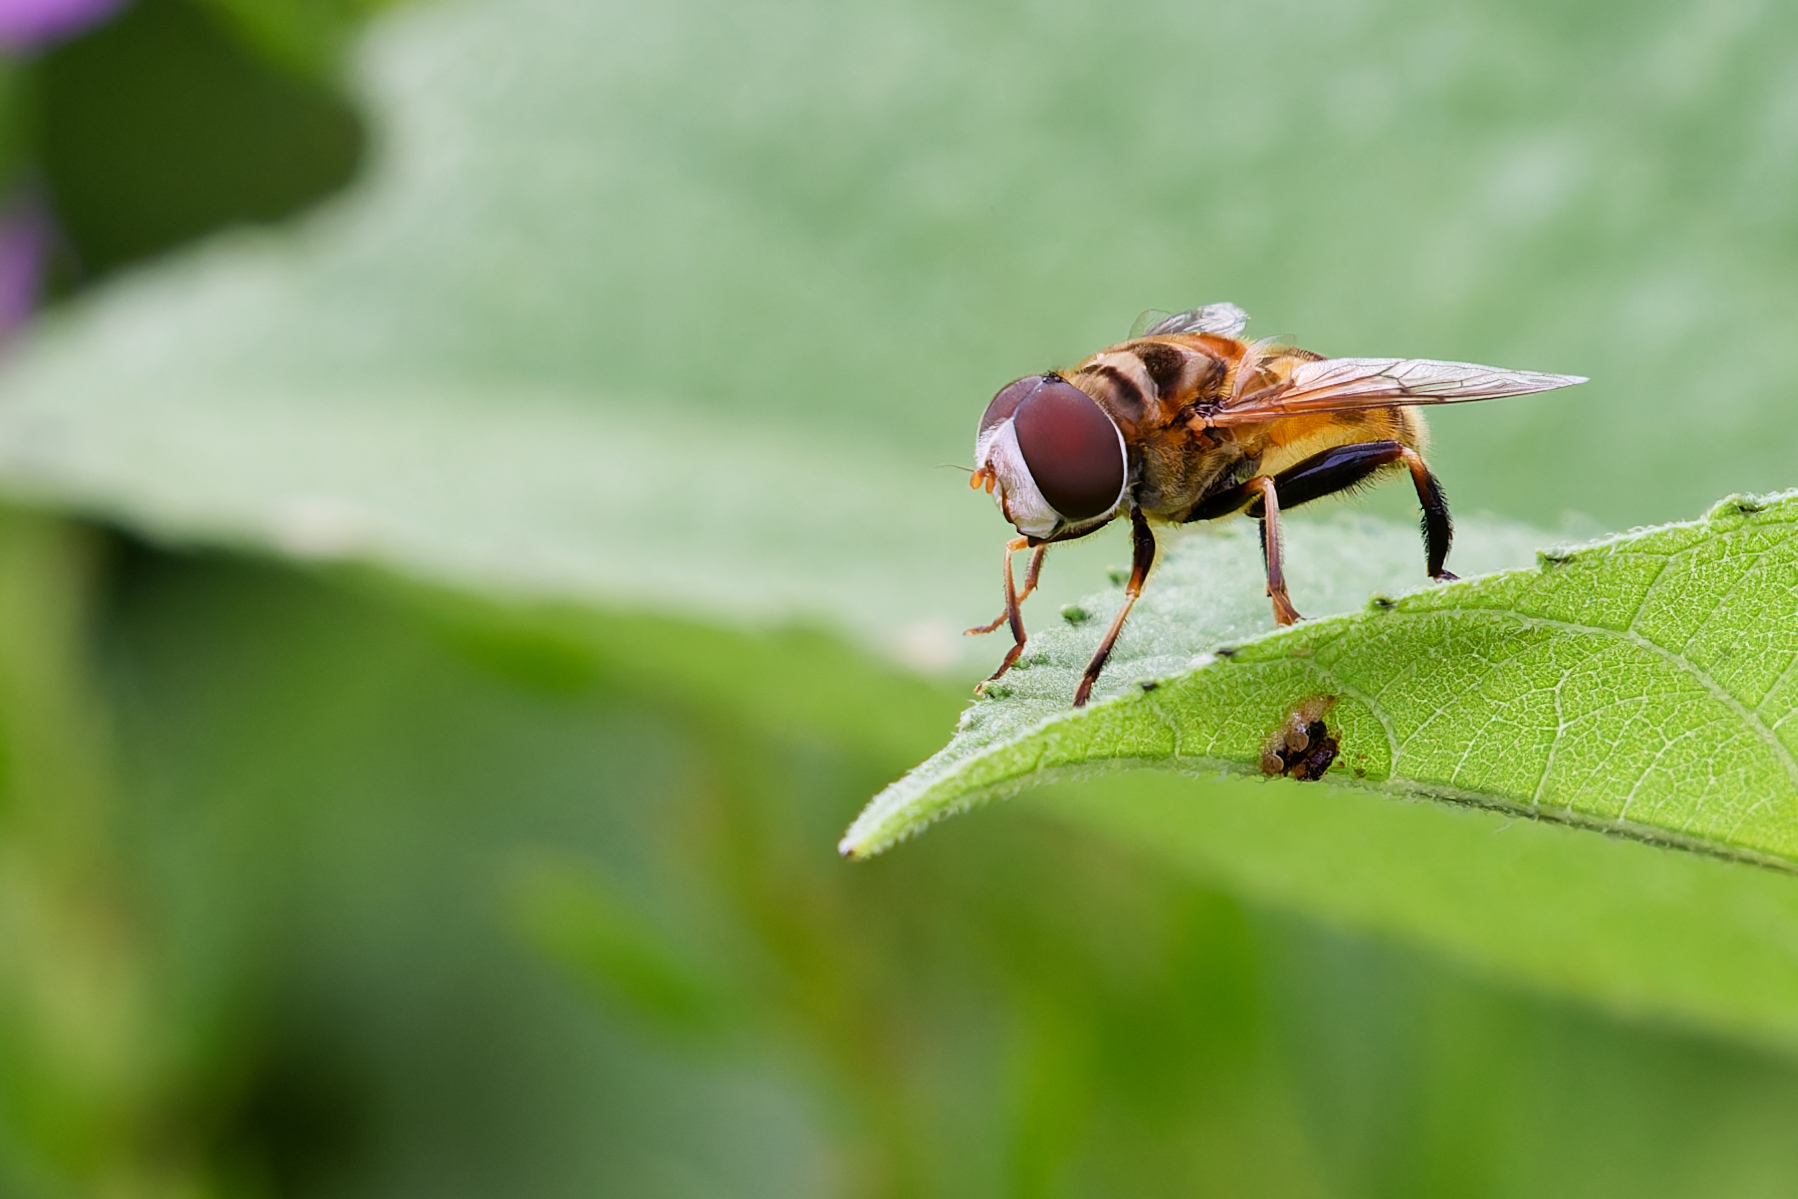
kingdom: Animalia
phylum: Arthropoda
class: Insecta
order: Diptera
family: Syrphidae
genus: Palpada
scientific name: Palpada vinetorum
